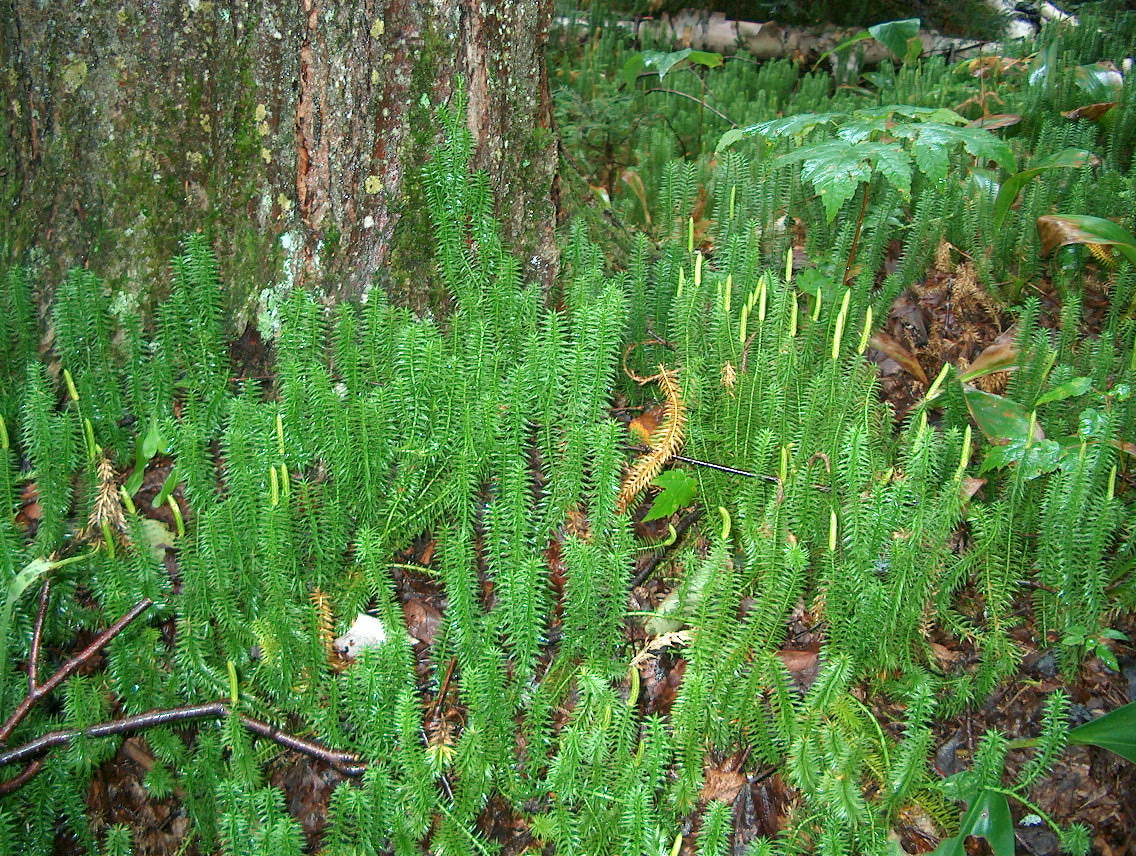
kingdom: Plantae
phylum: Tracheophyta
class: Lycopodiopsida
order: Lycopodiales
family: Lycopodiaceae
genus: Spinulum
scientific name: Spinulum annotinum
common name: Interrupted club-moss
